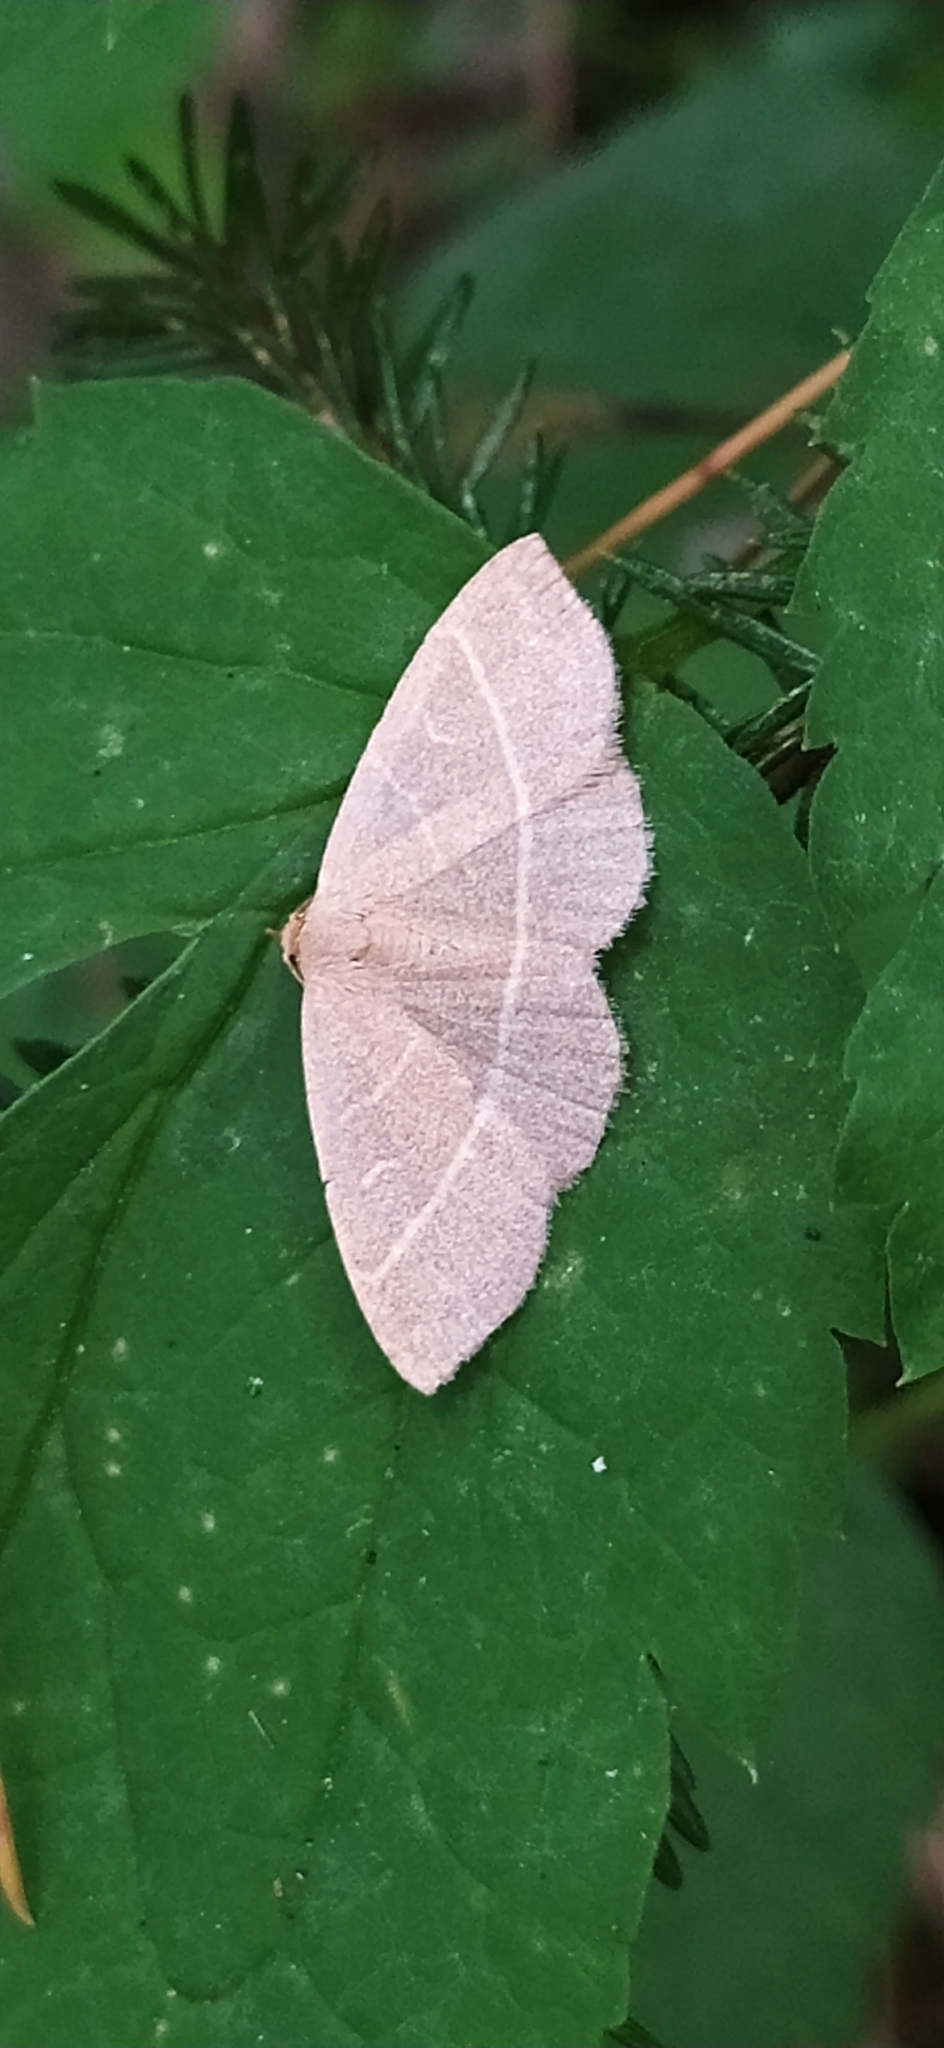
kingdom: Animalia
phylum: Arthropoda
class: Insecta
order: Lepidoptera
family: Erebidae
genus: Trisateles
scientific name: Trisateles emortualis
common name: Olive crescent
